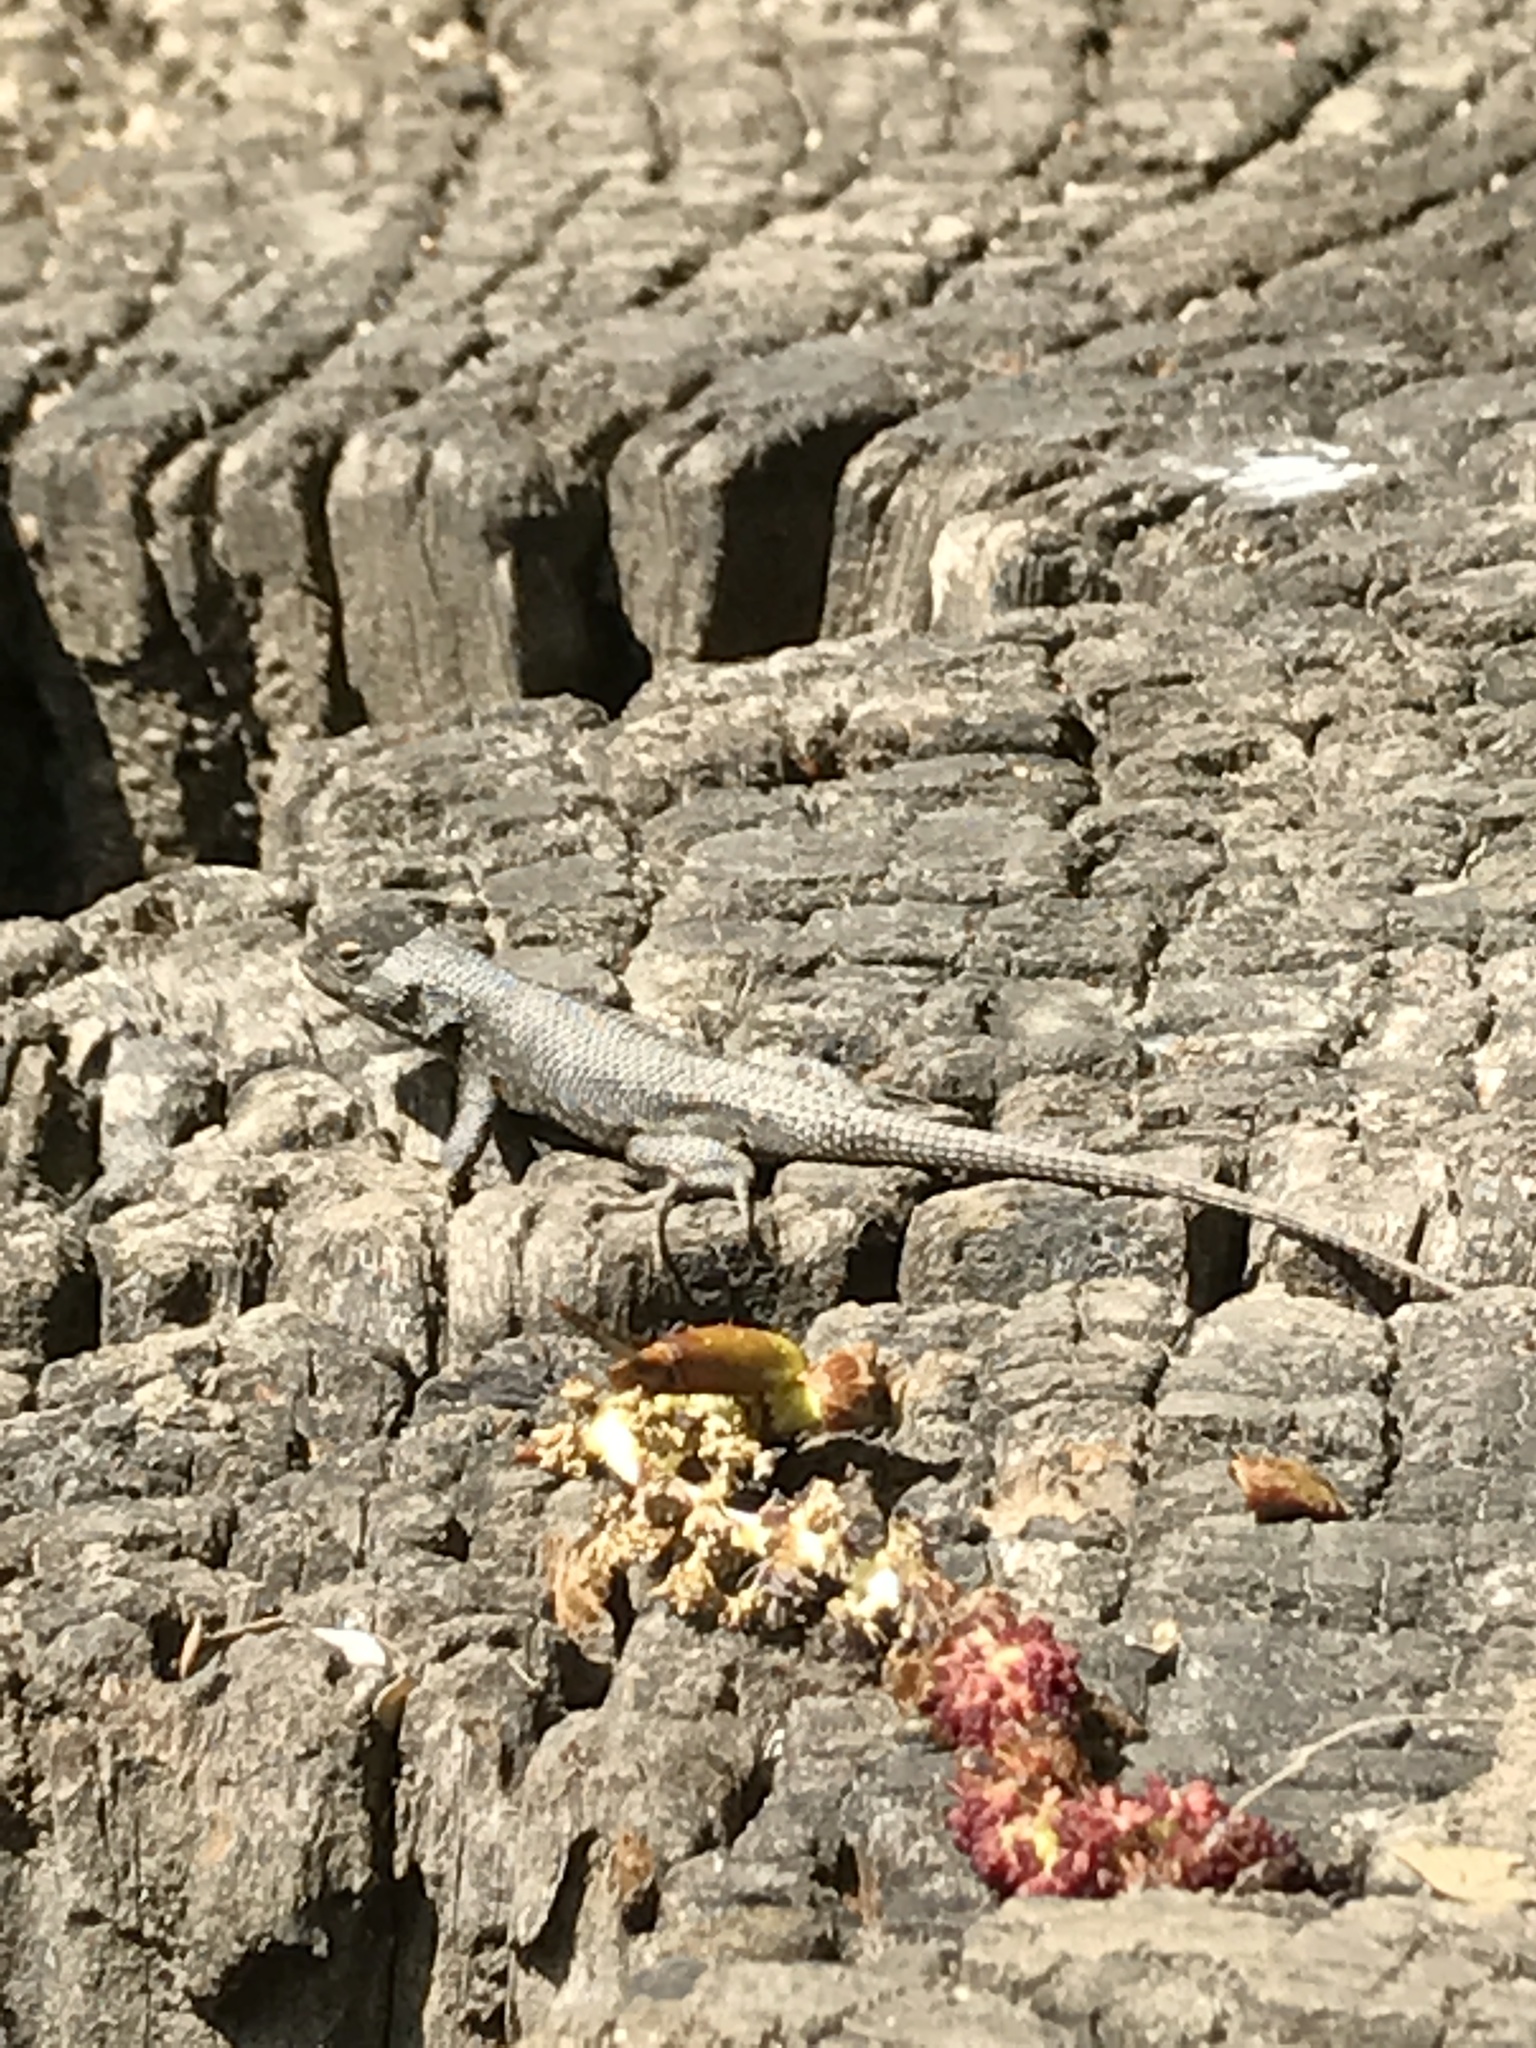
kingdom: Animalia
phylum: Chordata
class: Squamata
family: Phrynosomatidae
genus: Sceloporus
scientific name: Sceloporus occidentalis
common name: Western fence lizard
